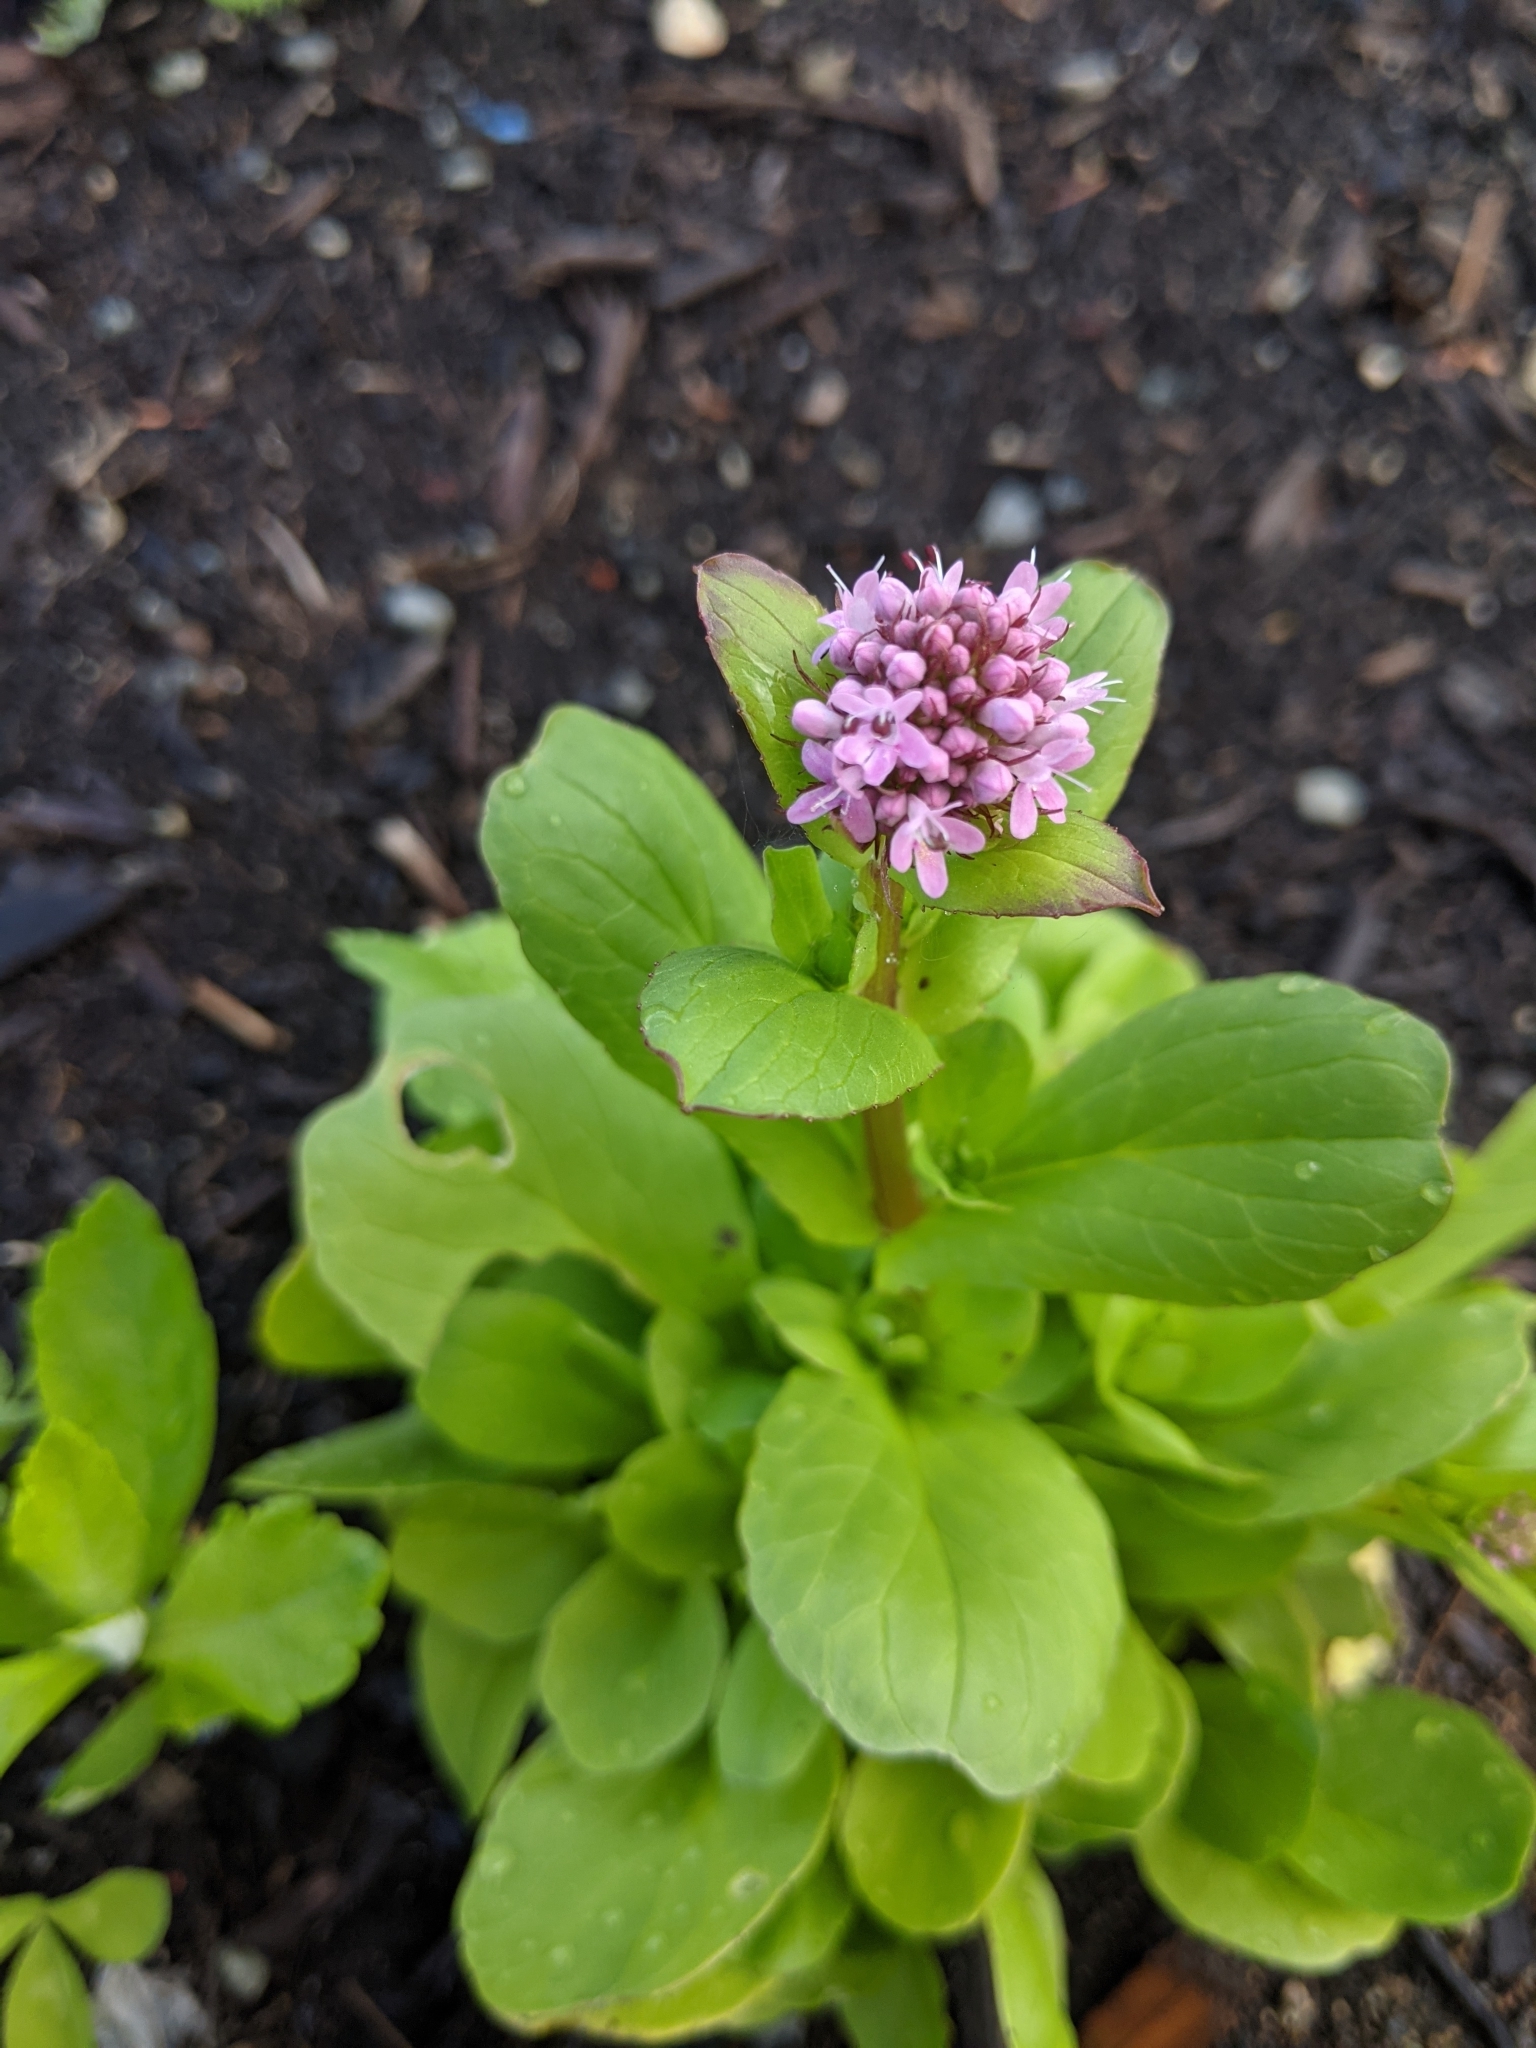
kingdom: Plantae
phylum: Tracheophyta
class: Magnoliopsida
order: Dipsacales
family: Caprifoliaceae
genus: Plectritis
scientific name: Plectritis congesta
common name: Pink plectritis
